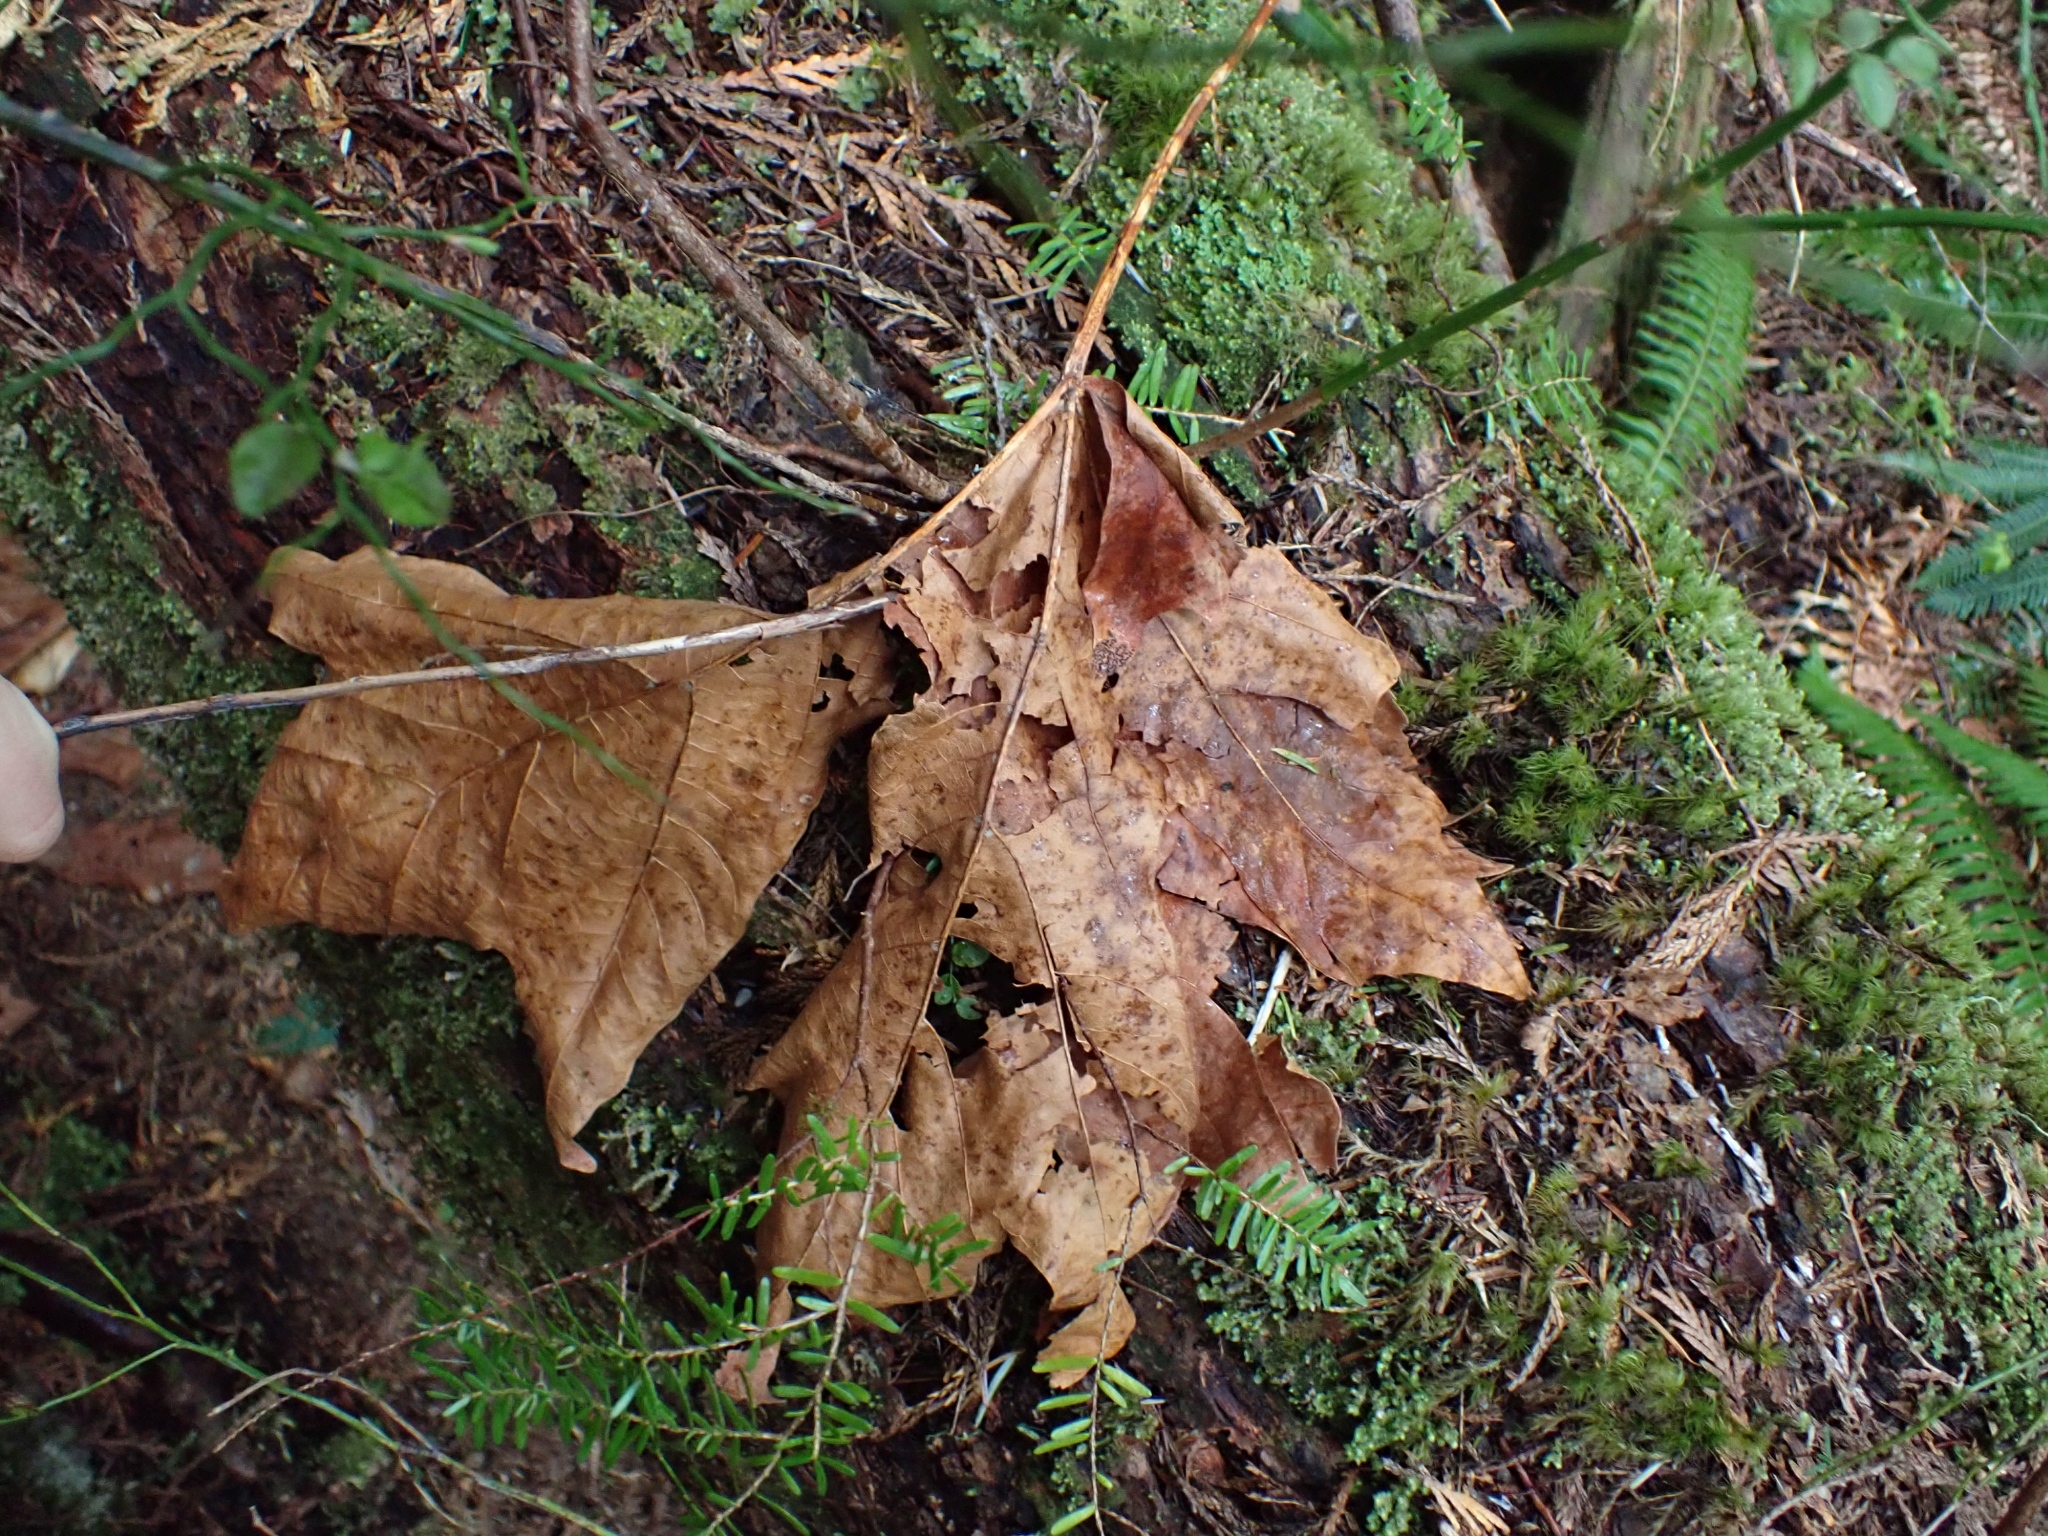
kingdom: Plantae
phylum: Tracheophyta
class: Magnoliopsida
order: Sapindales
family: Sapindaceae
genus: Acer
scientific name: Acer macrophyllum
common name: Oregon maple
